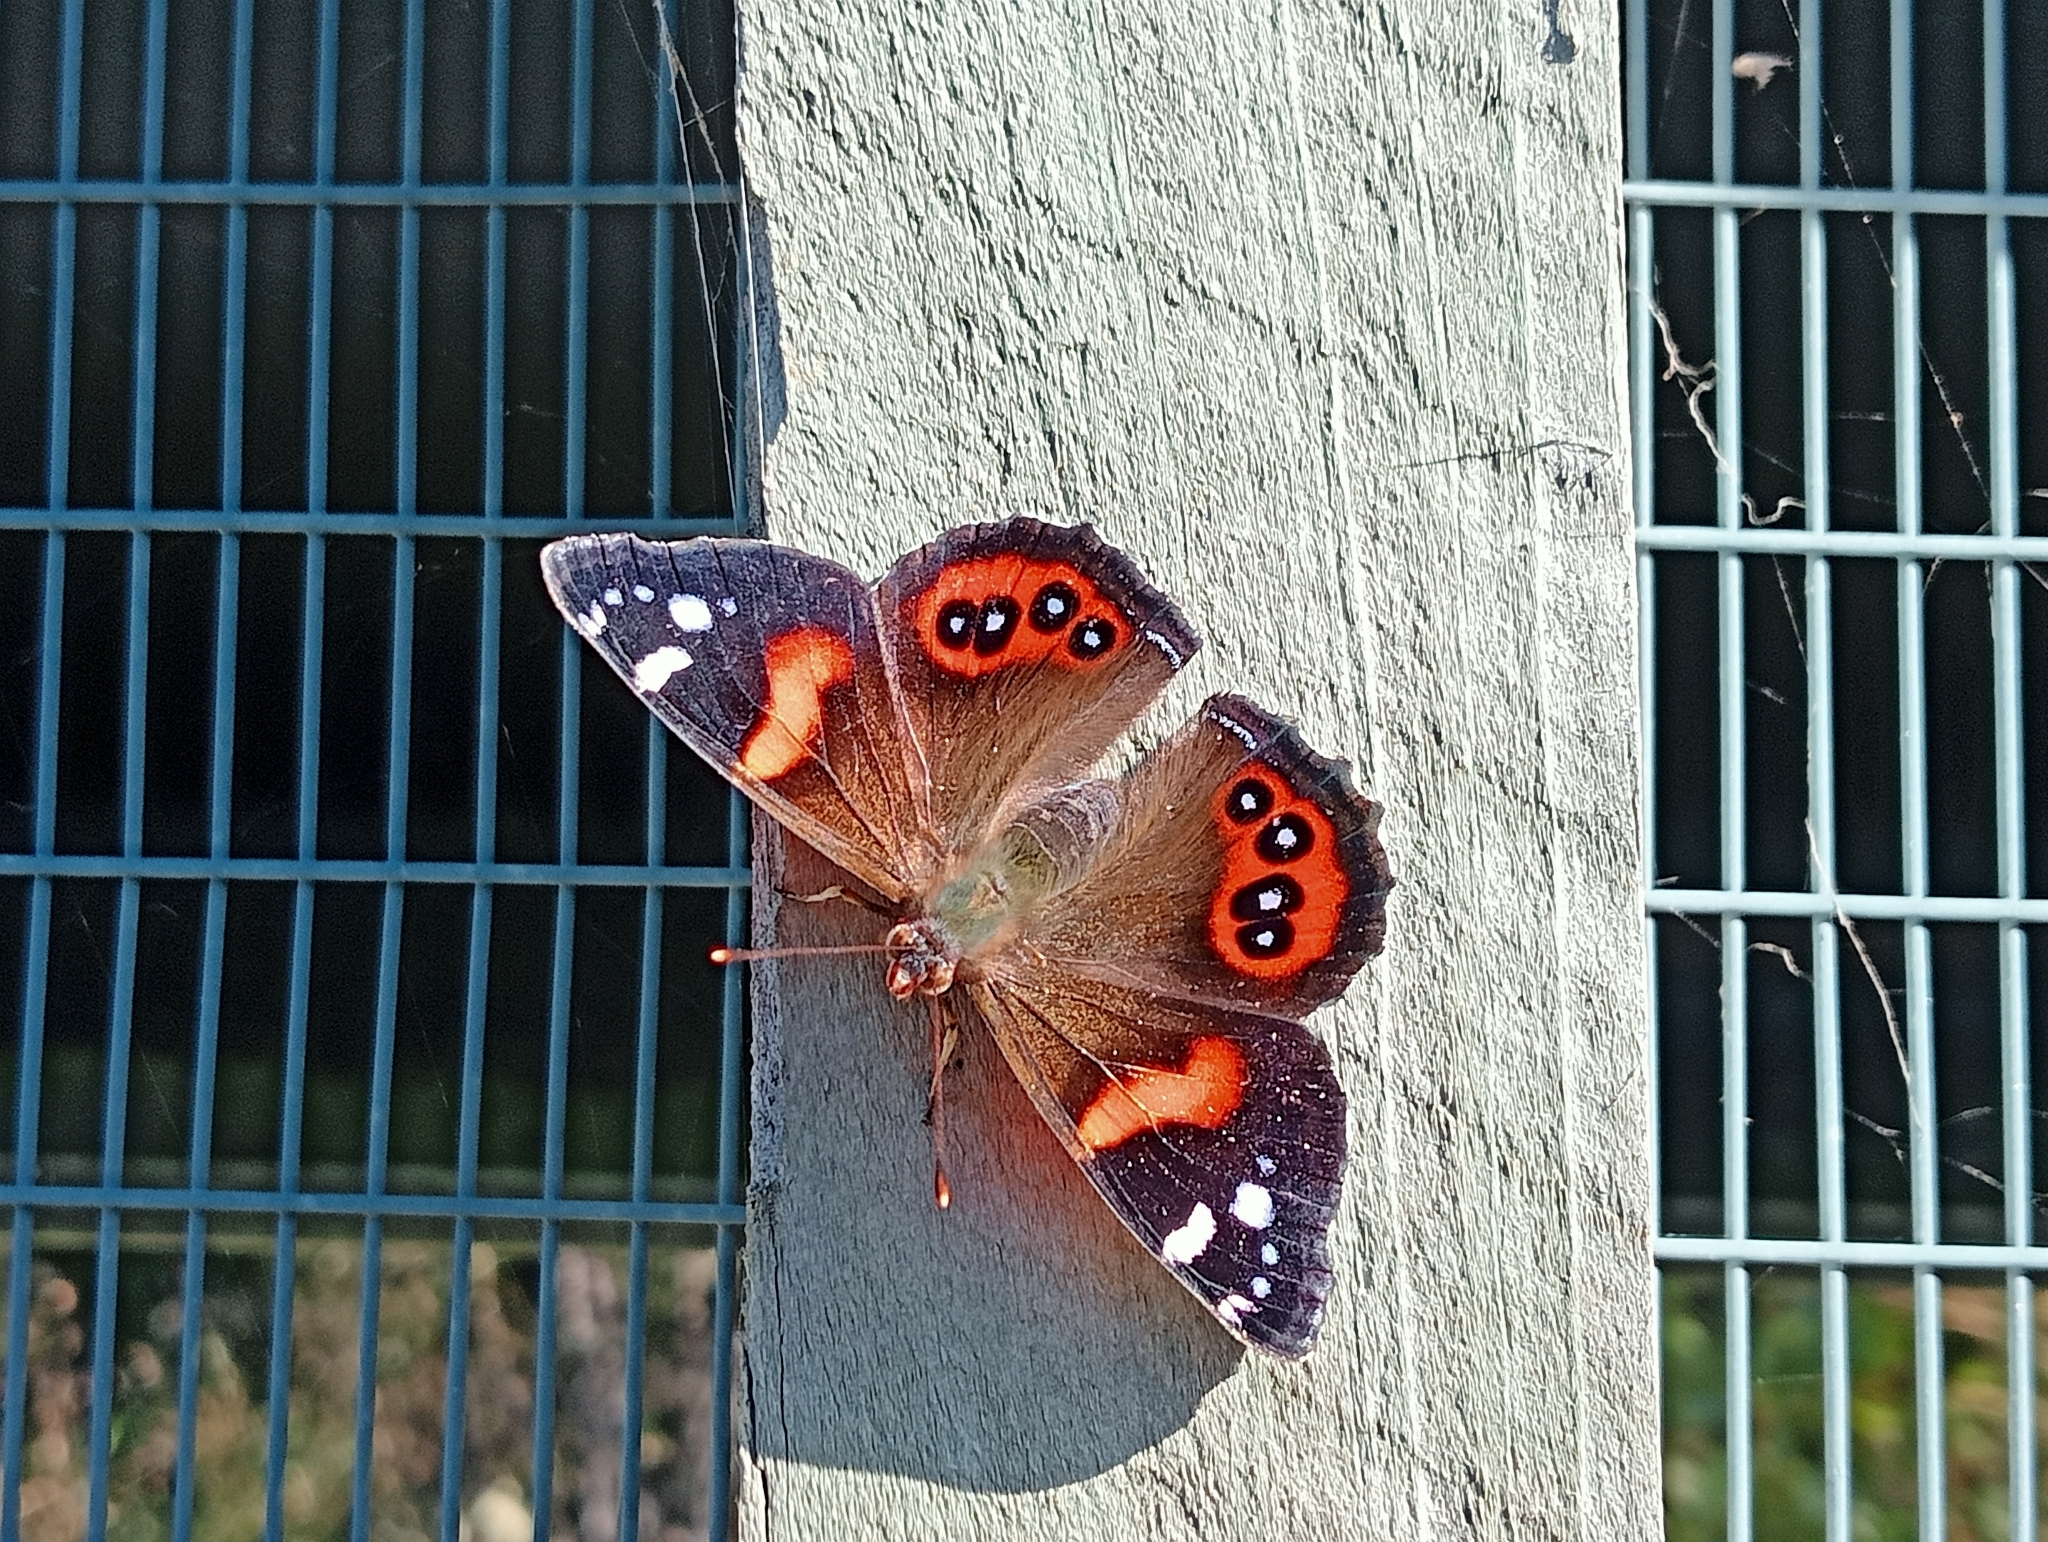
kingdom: Animalia
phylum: Arthropoda
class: Insecta
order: Lepidoptera
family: Nymphalidae
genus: Vanessa
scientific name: Vanessa gonerilla
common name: New zealand red admiral
